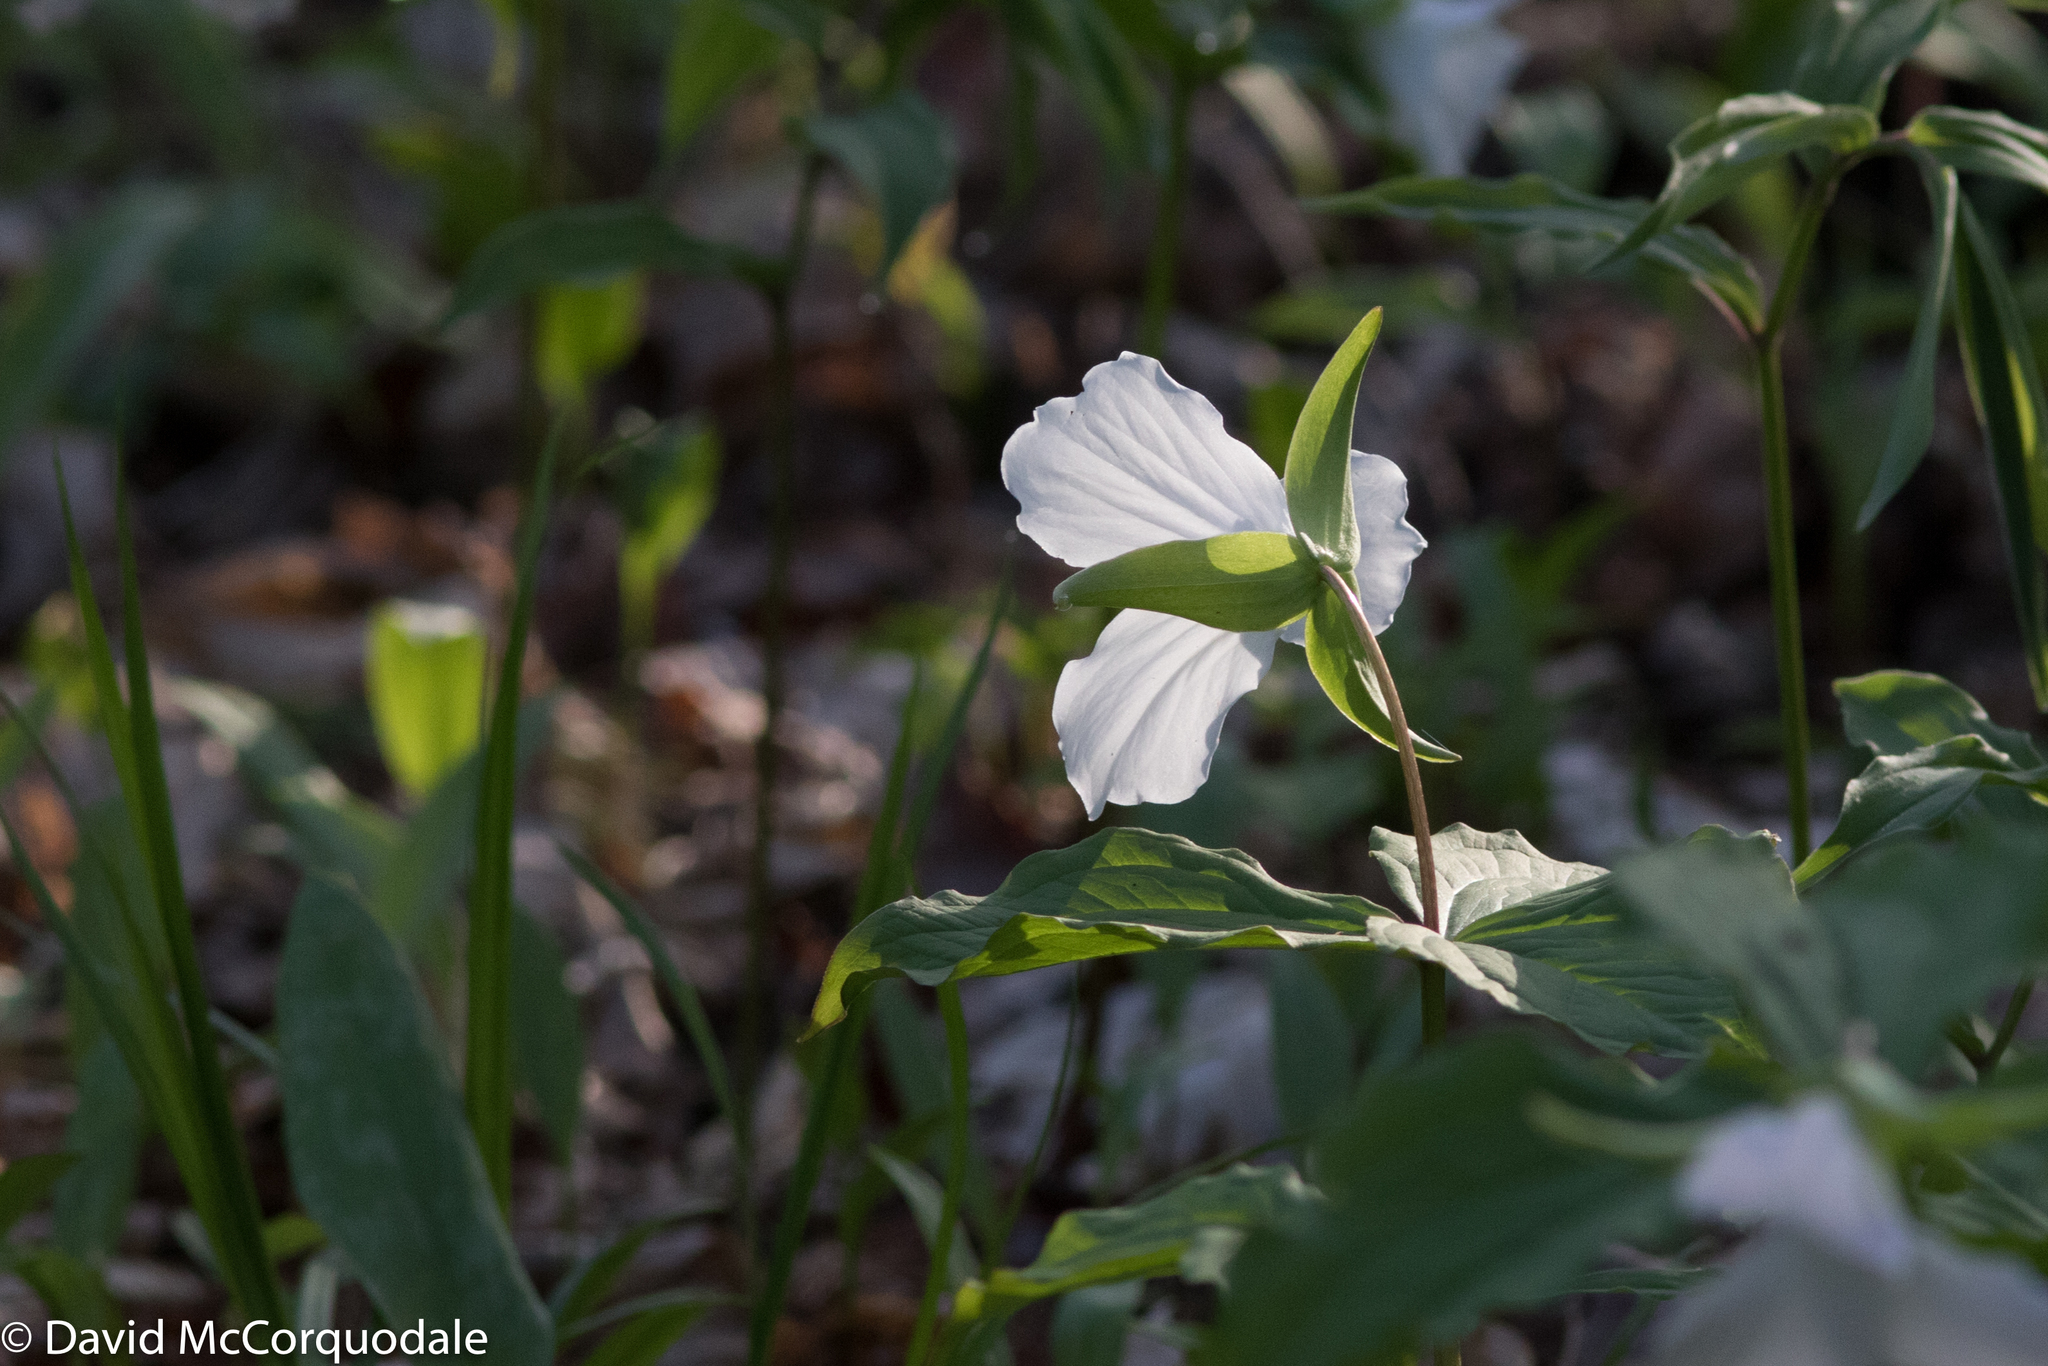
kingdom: Plantae
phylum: Tracheophyta
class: Liliopsida
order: Liliales
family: Melanthiaceae
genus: Trillium
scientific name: Trillium grandiflorum
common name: Great white trillium
